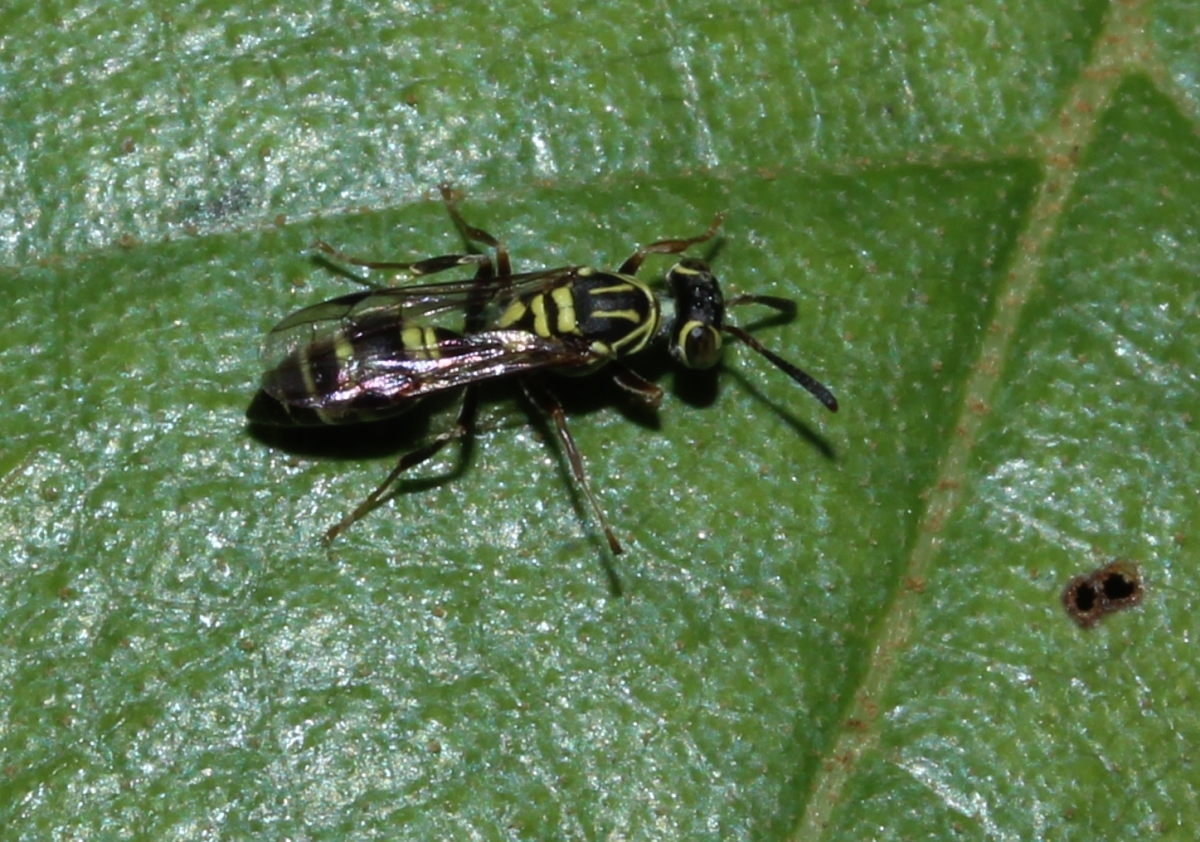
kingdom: Animalia
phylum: Arthropoda
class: Insecta
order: Hymenoptera
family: Vespidae
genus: Protopolybia
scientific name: Protopolybia
